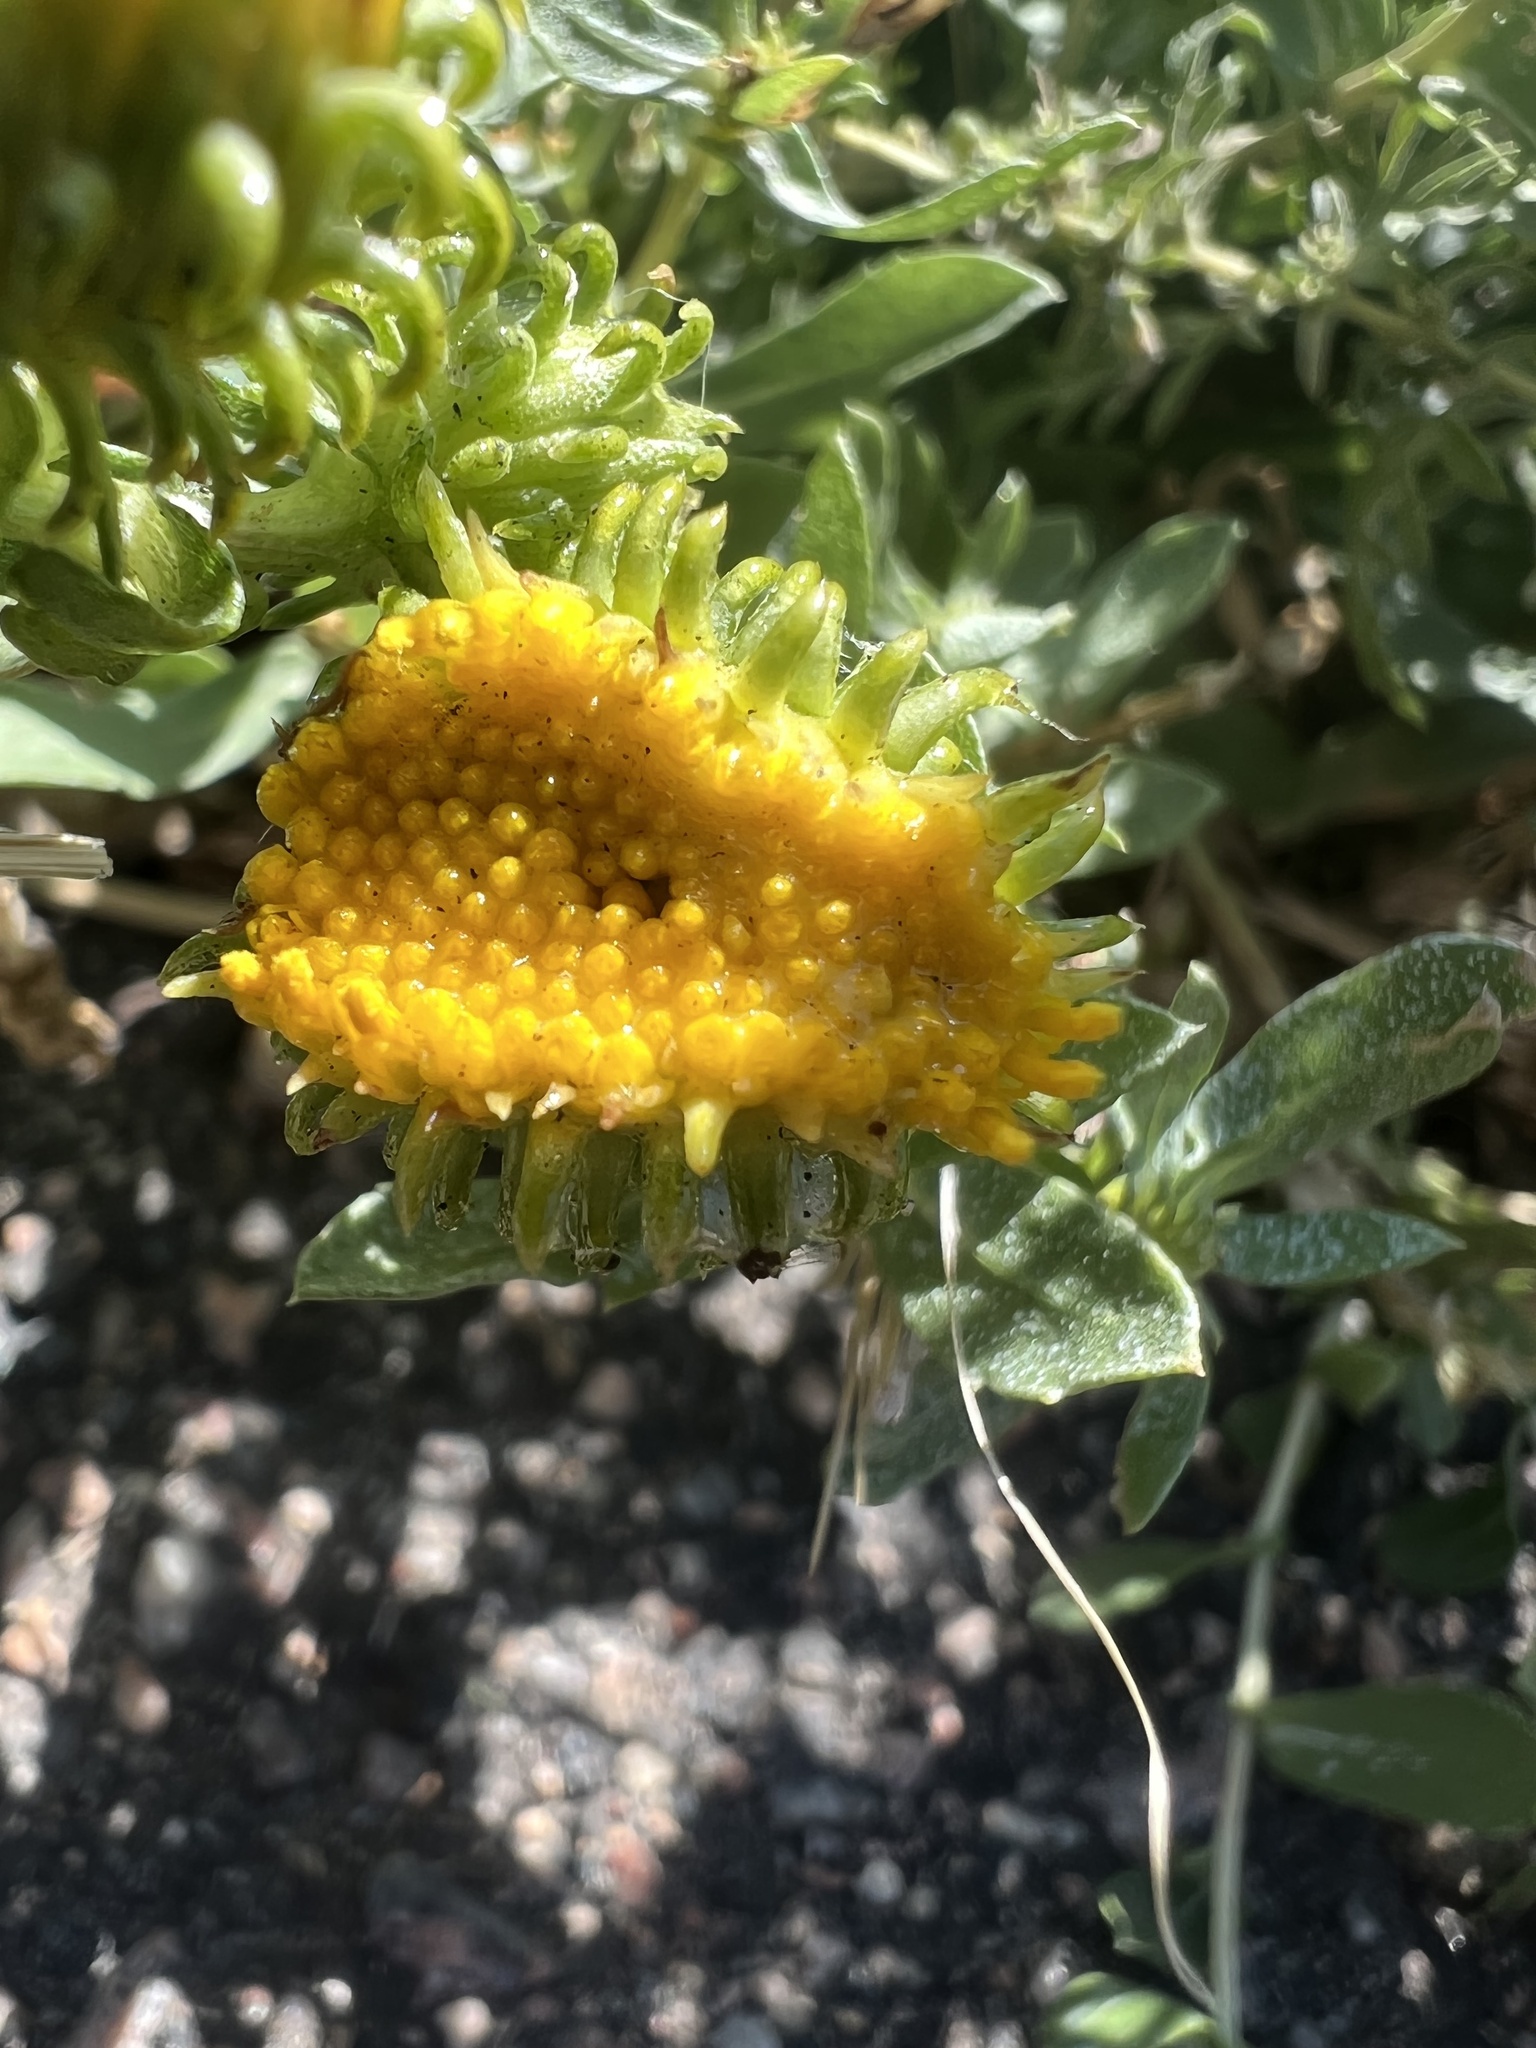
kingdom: Plantae
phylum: Tracheophyta
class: Magnoliopsida
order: Asterales
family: Asteraceae
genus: Grindelia
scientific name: Grindelia hirsutula
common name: Hairy gumweed
